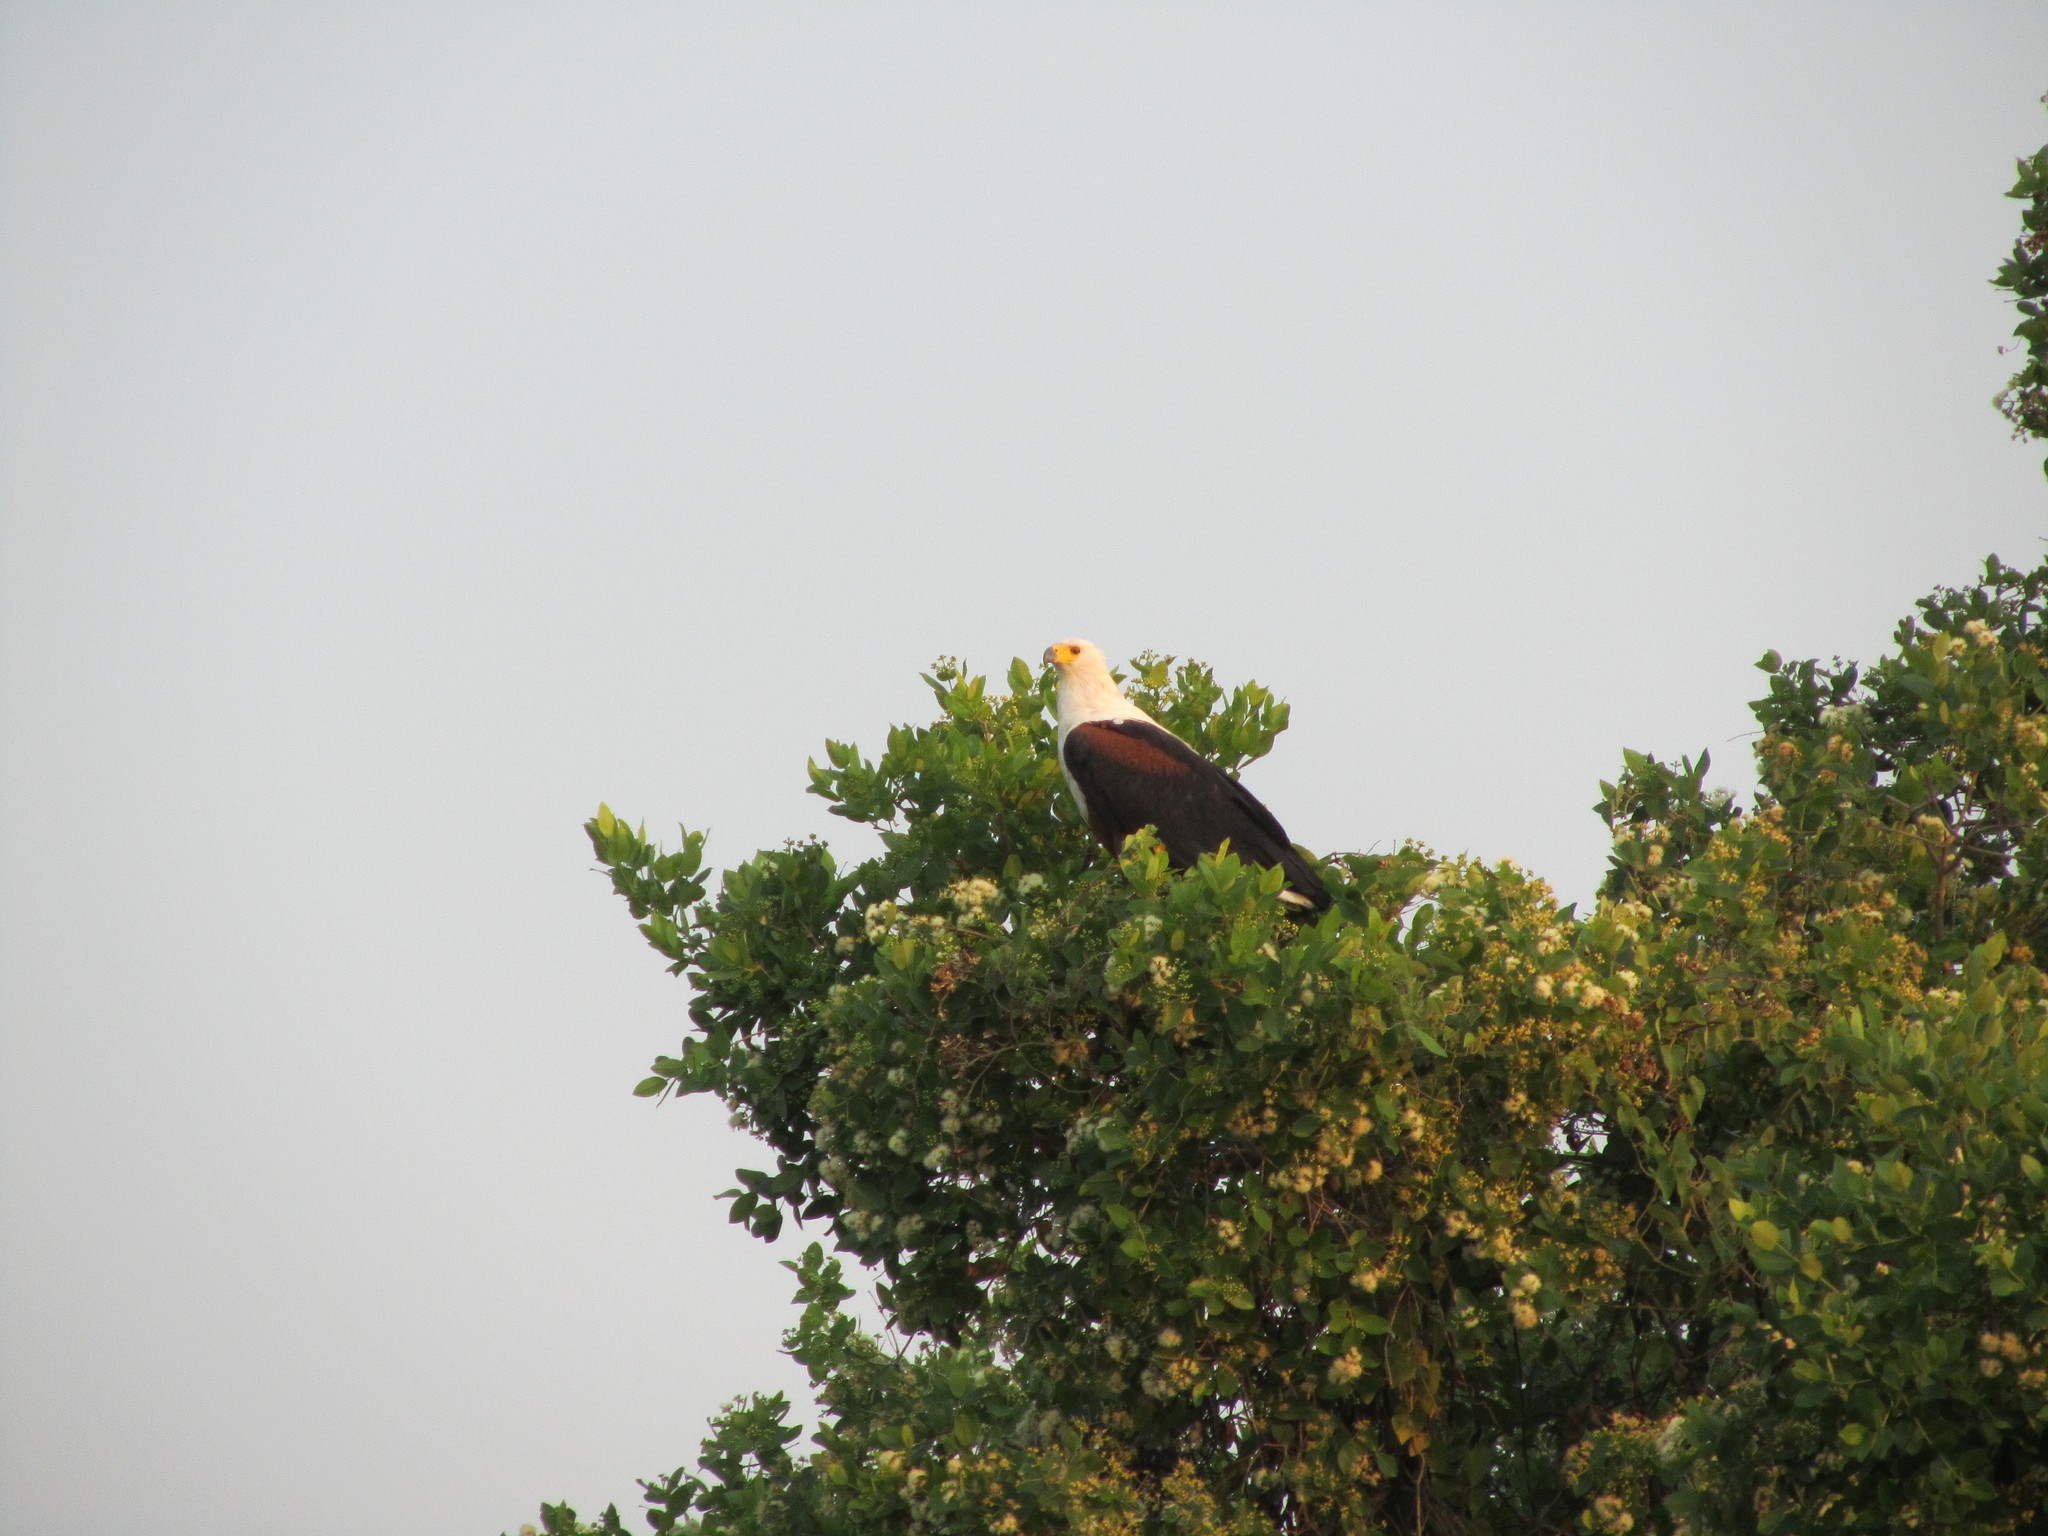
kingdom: Animalia
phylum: Chordata
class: Aves
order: Accipitriformes
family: Accipitridae
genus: Haliaeetus
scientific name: Haliaeetus vocifer
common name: African fish eagle
